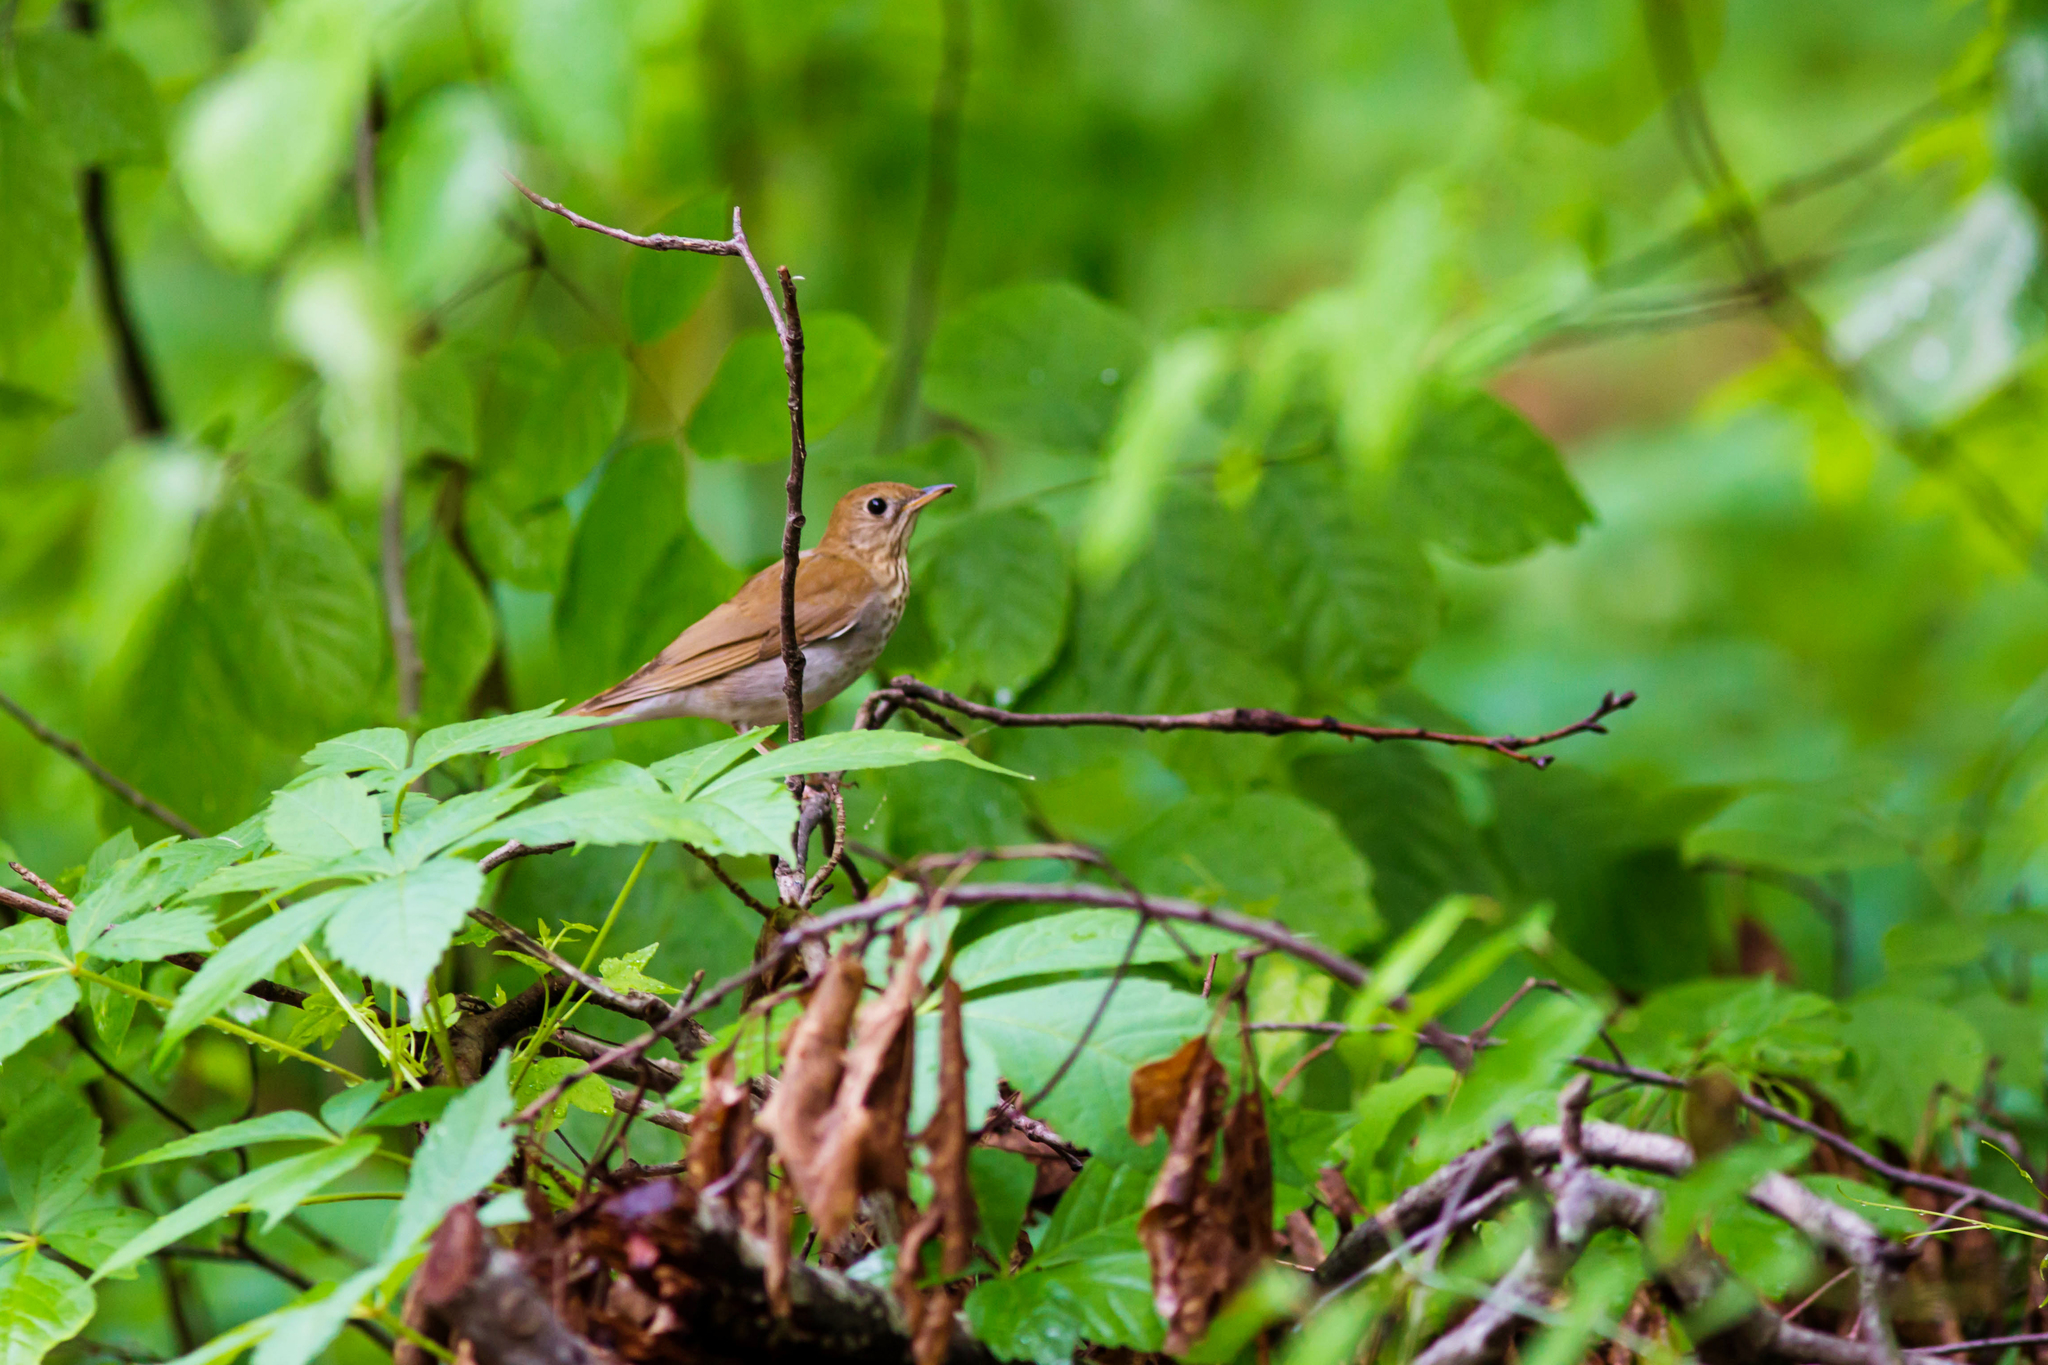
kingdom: Animalia
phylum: Chordata
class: Aves
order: Passeriformes
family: Turdidae
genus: Catharus
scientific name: Catharus fuscescens
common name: Veery
